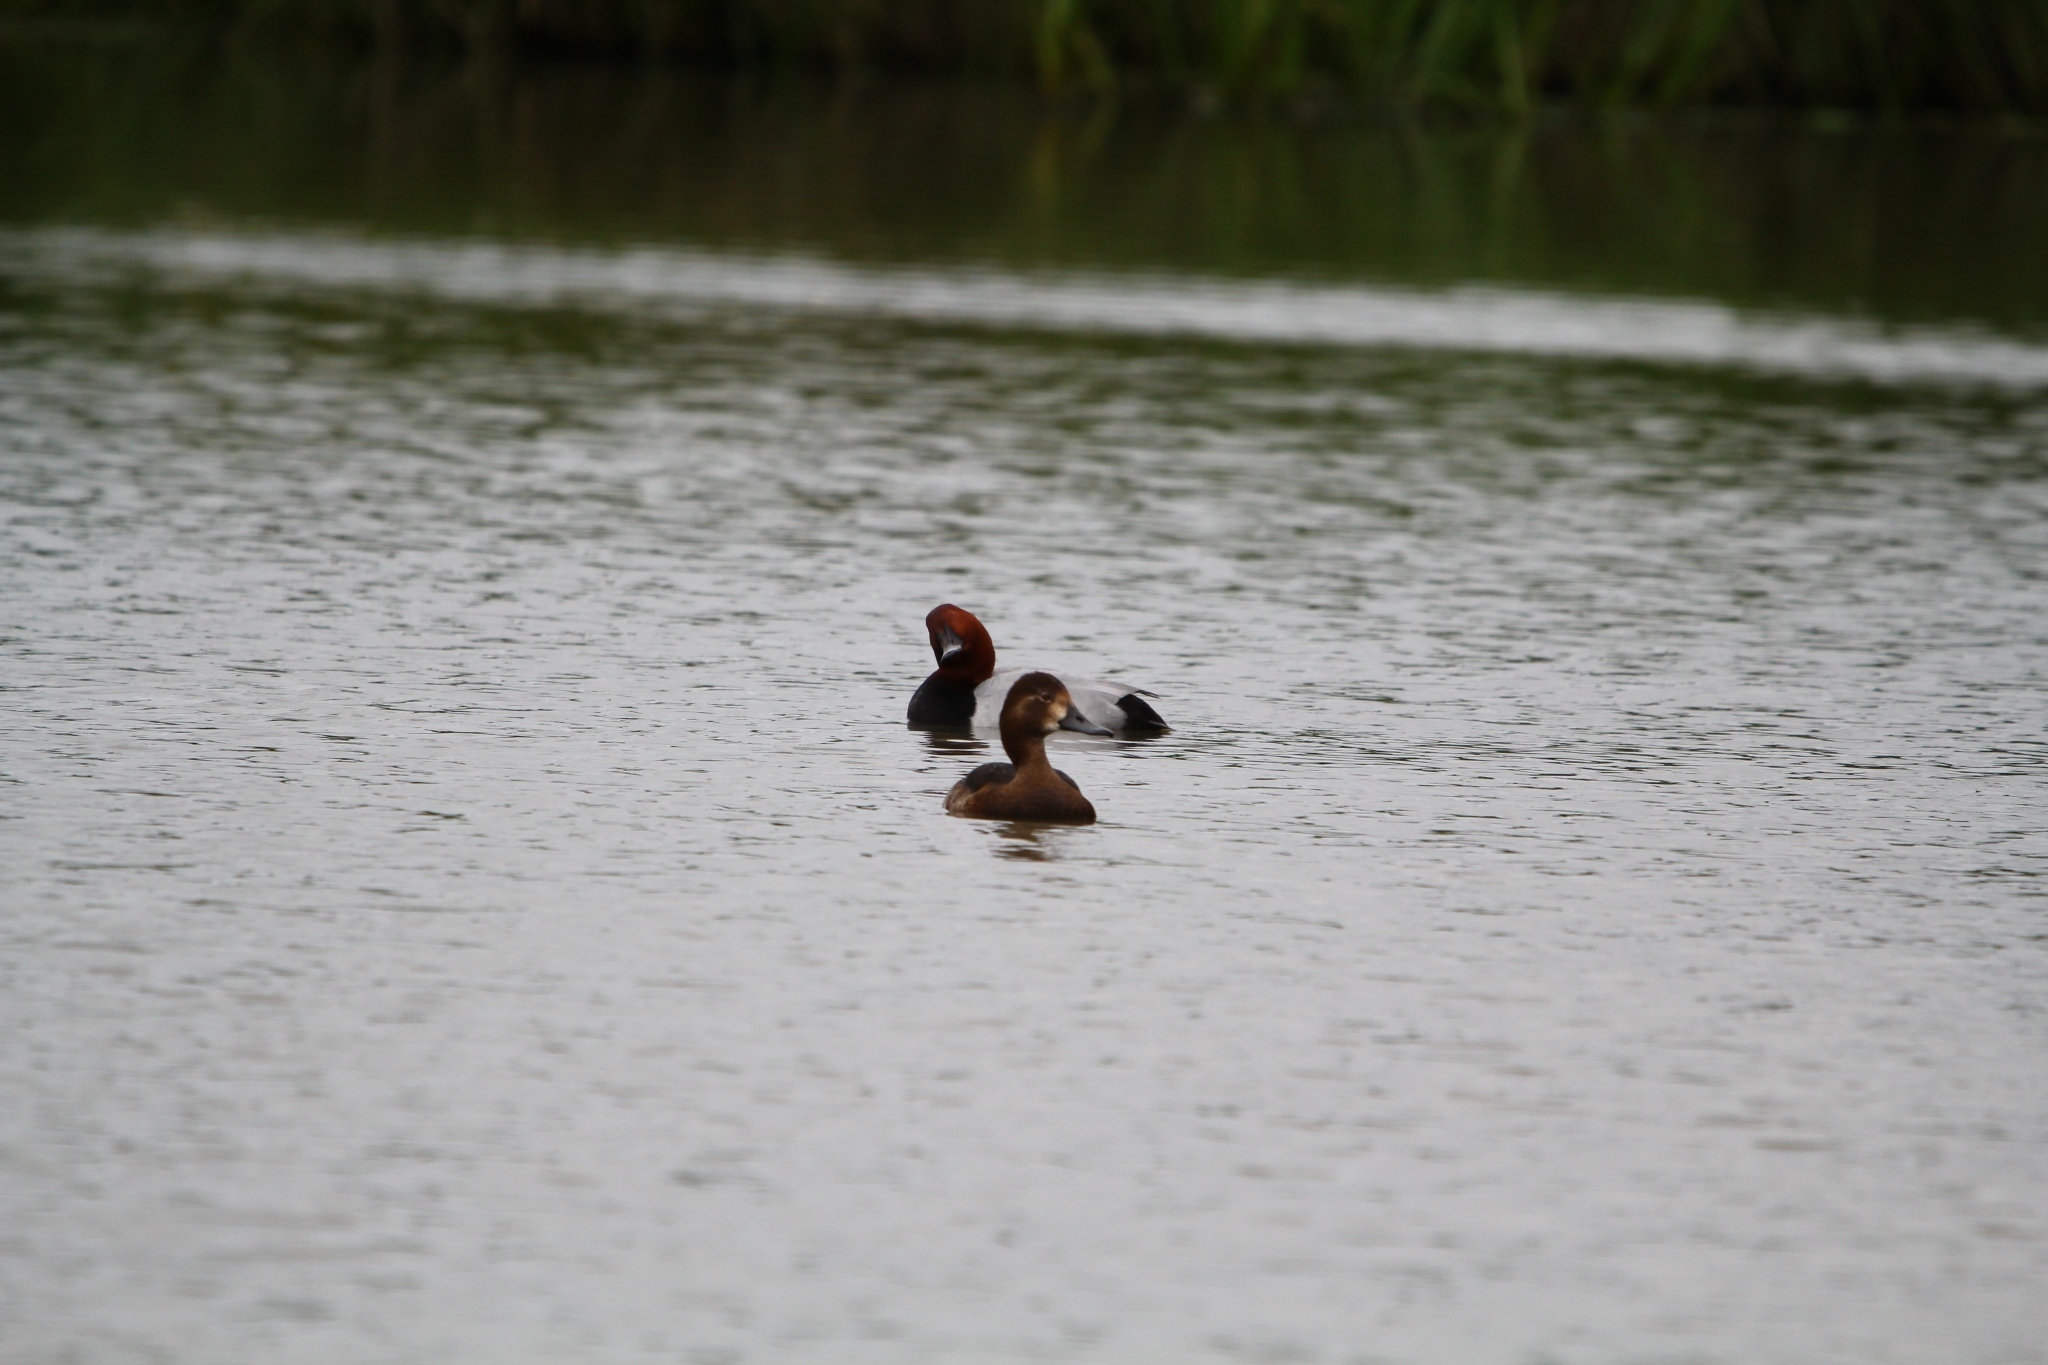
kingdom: Animalia
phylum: Chordata
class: Aves
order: Anseriformes
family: Anatidae
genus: Aythya
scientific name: Aythya ferina
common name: Common pochard
